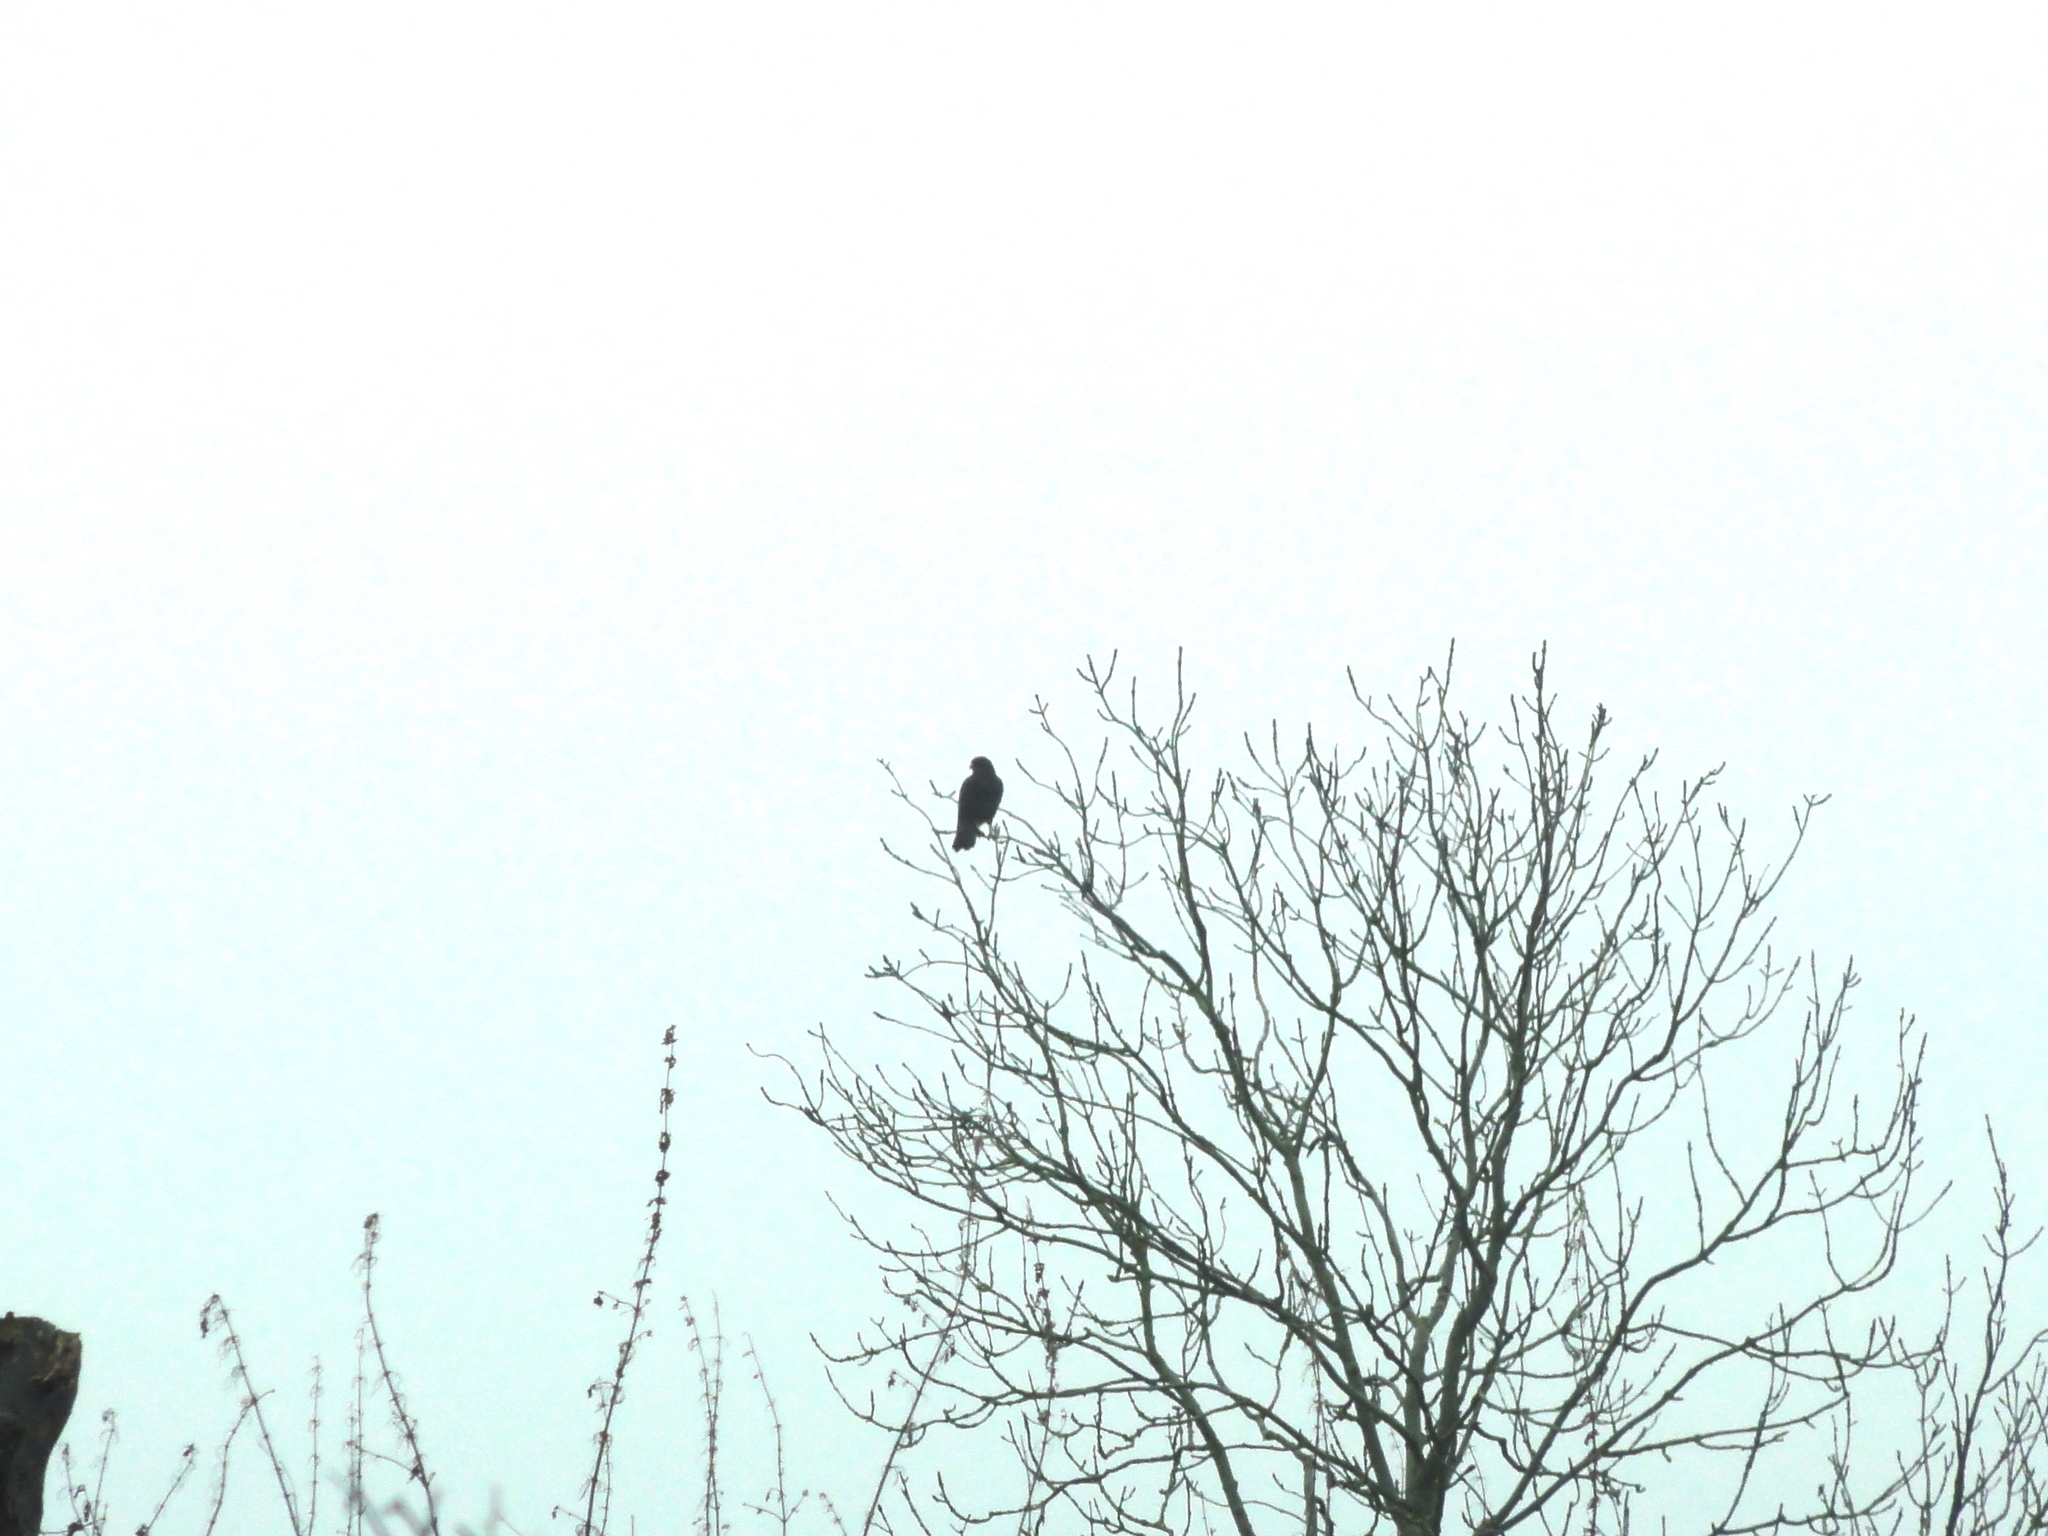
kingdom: Animalia
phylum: Chordata
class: Aves
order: Accipitriformes
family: Accipitridae
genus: Buteo
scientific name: Buteo buteo
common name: Common buzzard
